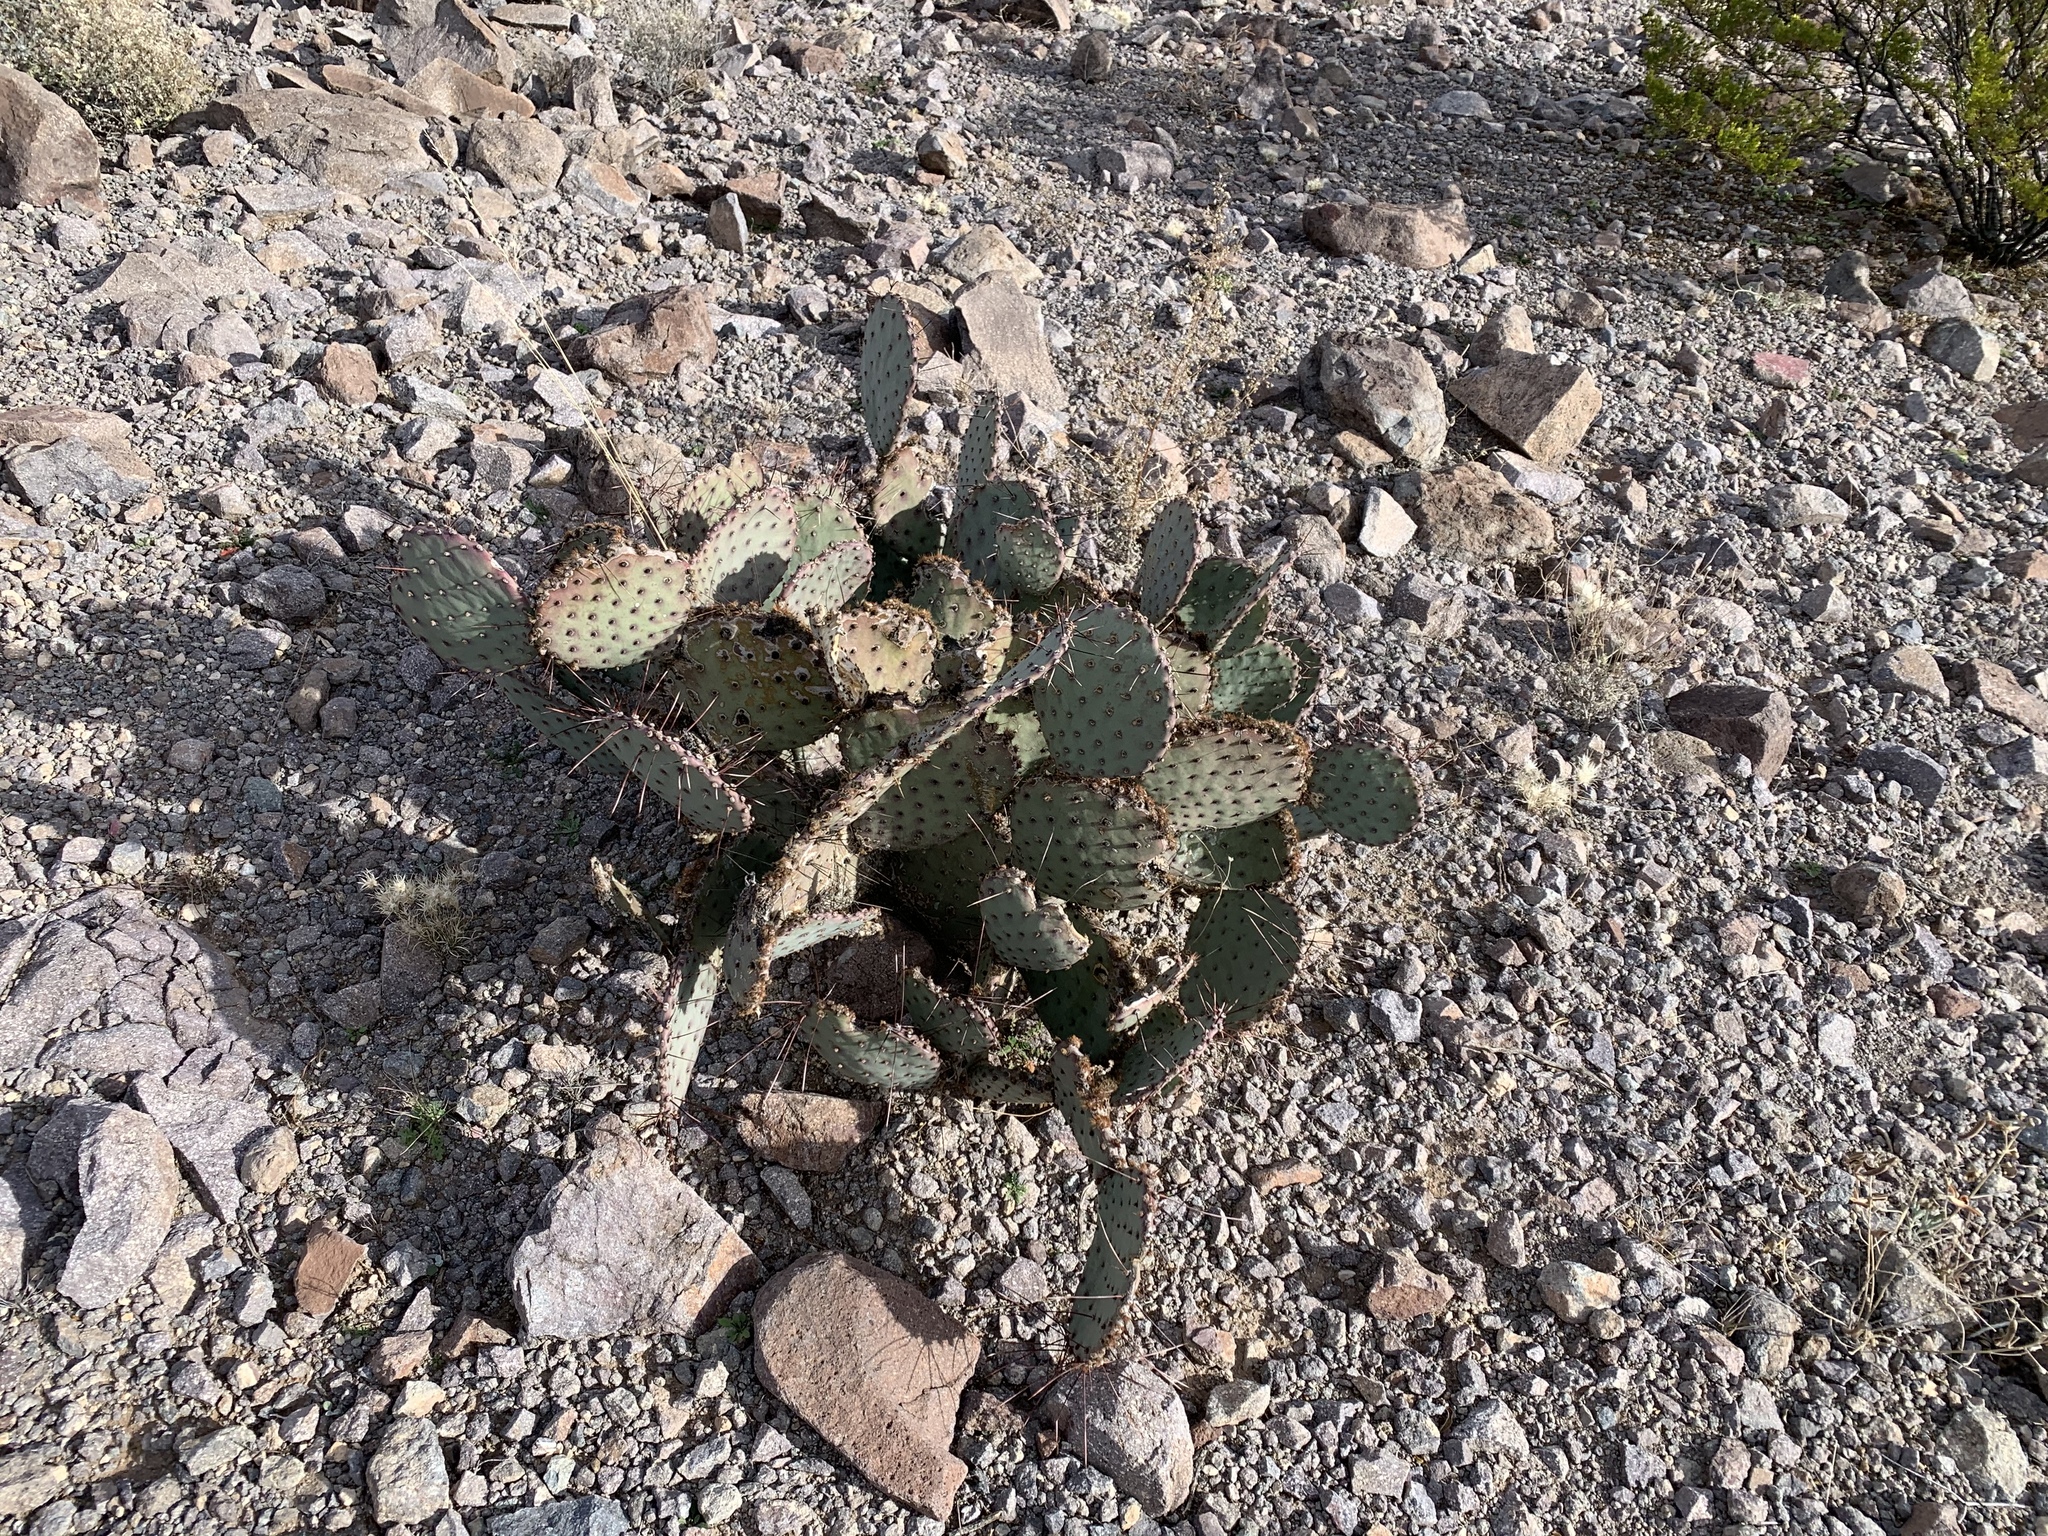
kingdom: Plantae
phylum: Tracheophyta
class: Magnoliopsida
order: Caryophyllales
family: Cactaceae
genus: Opuntia
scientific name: Opuntia macrocentra
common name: Purple prickly-pear
